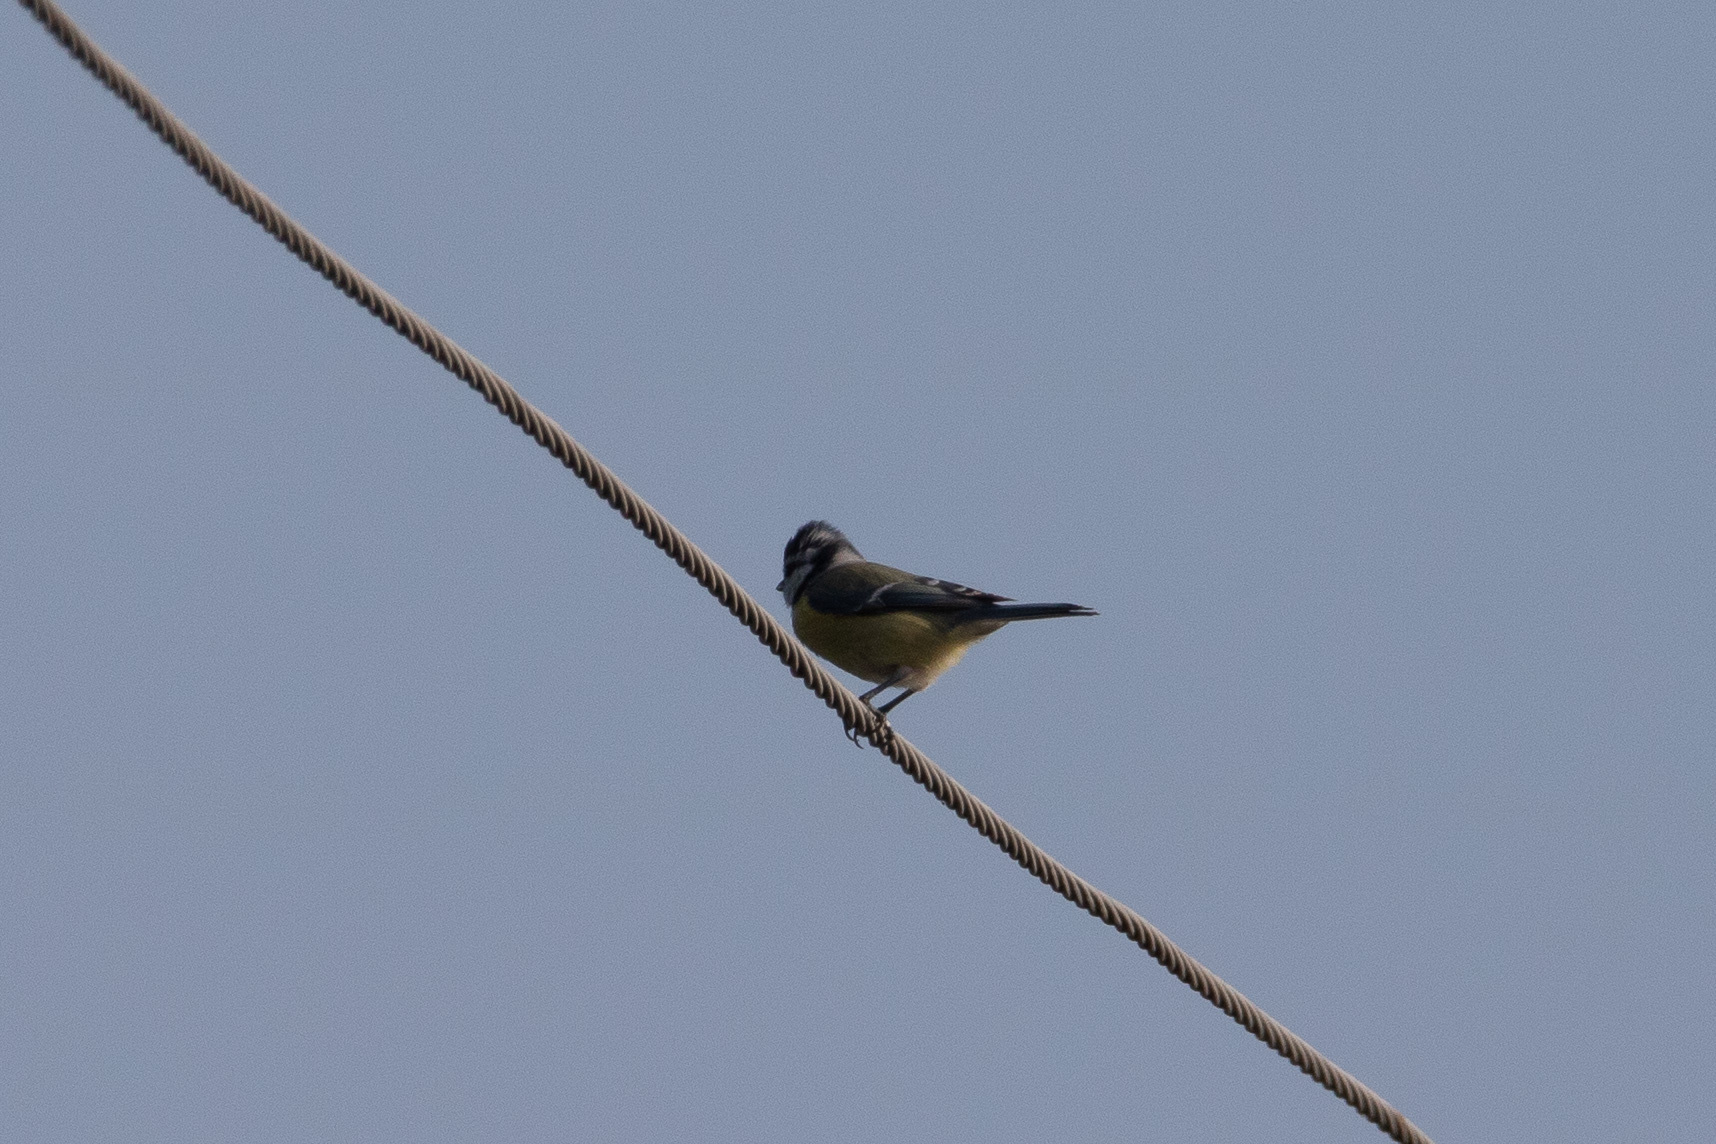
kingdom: Animalia
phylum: Chordata
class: Aves
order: Passeriformes
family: Paridae
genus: Cyanistes
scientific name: Cyanistes caeruleus
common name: Eurasian blue tit
